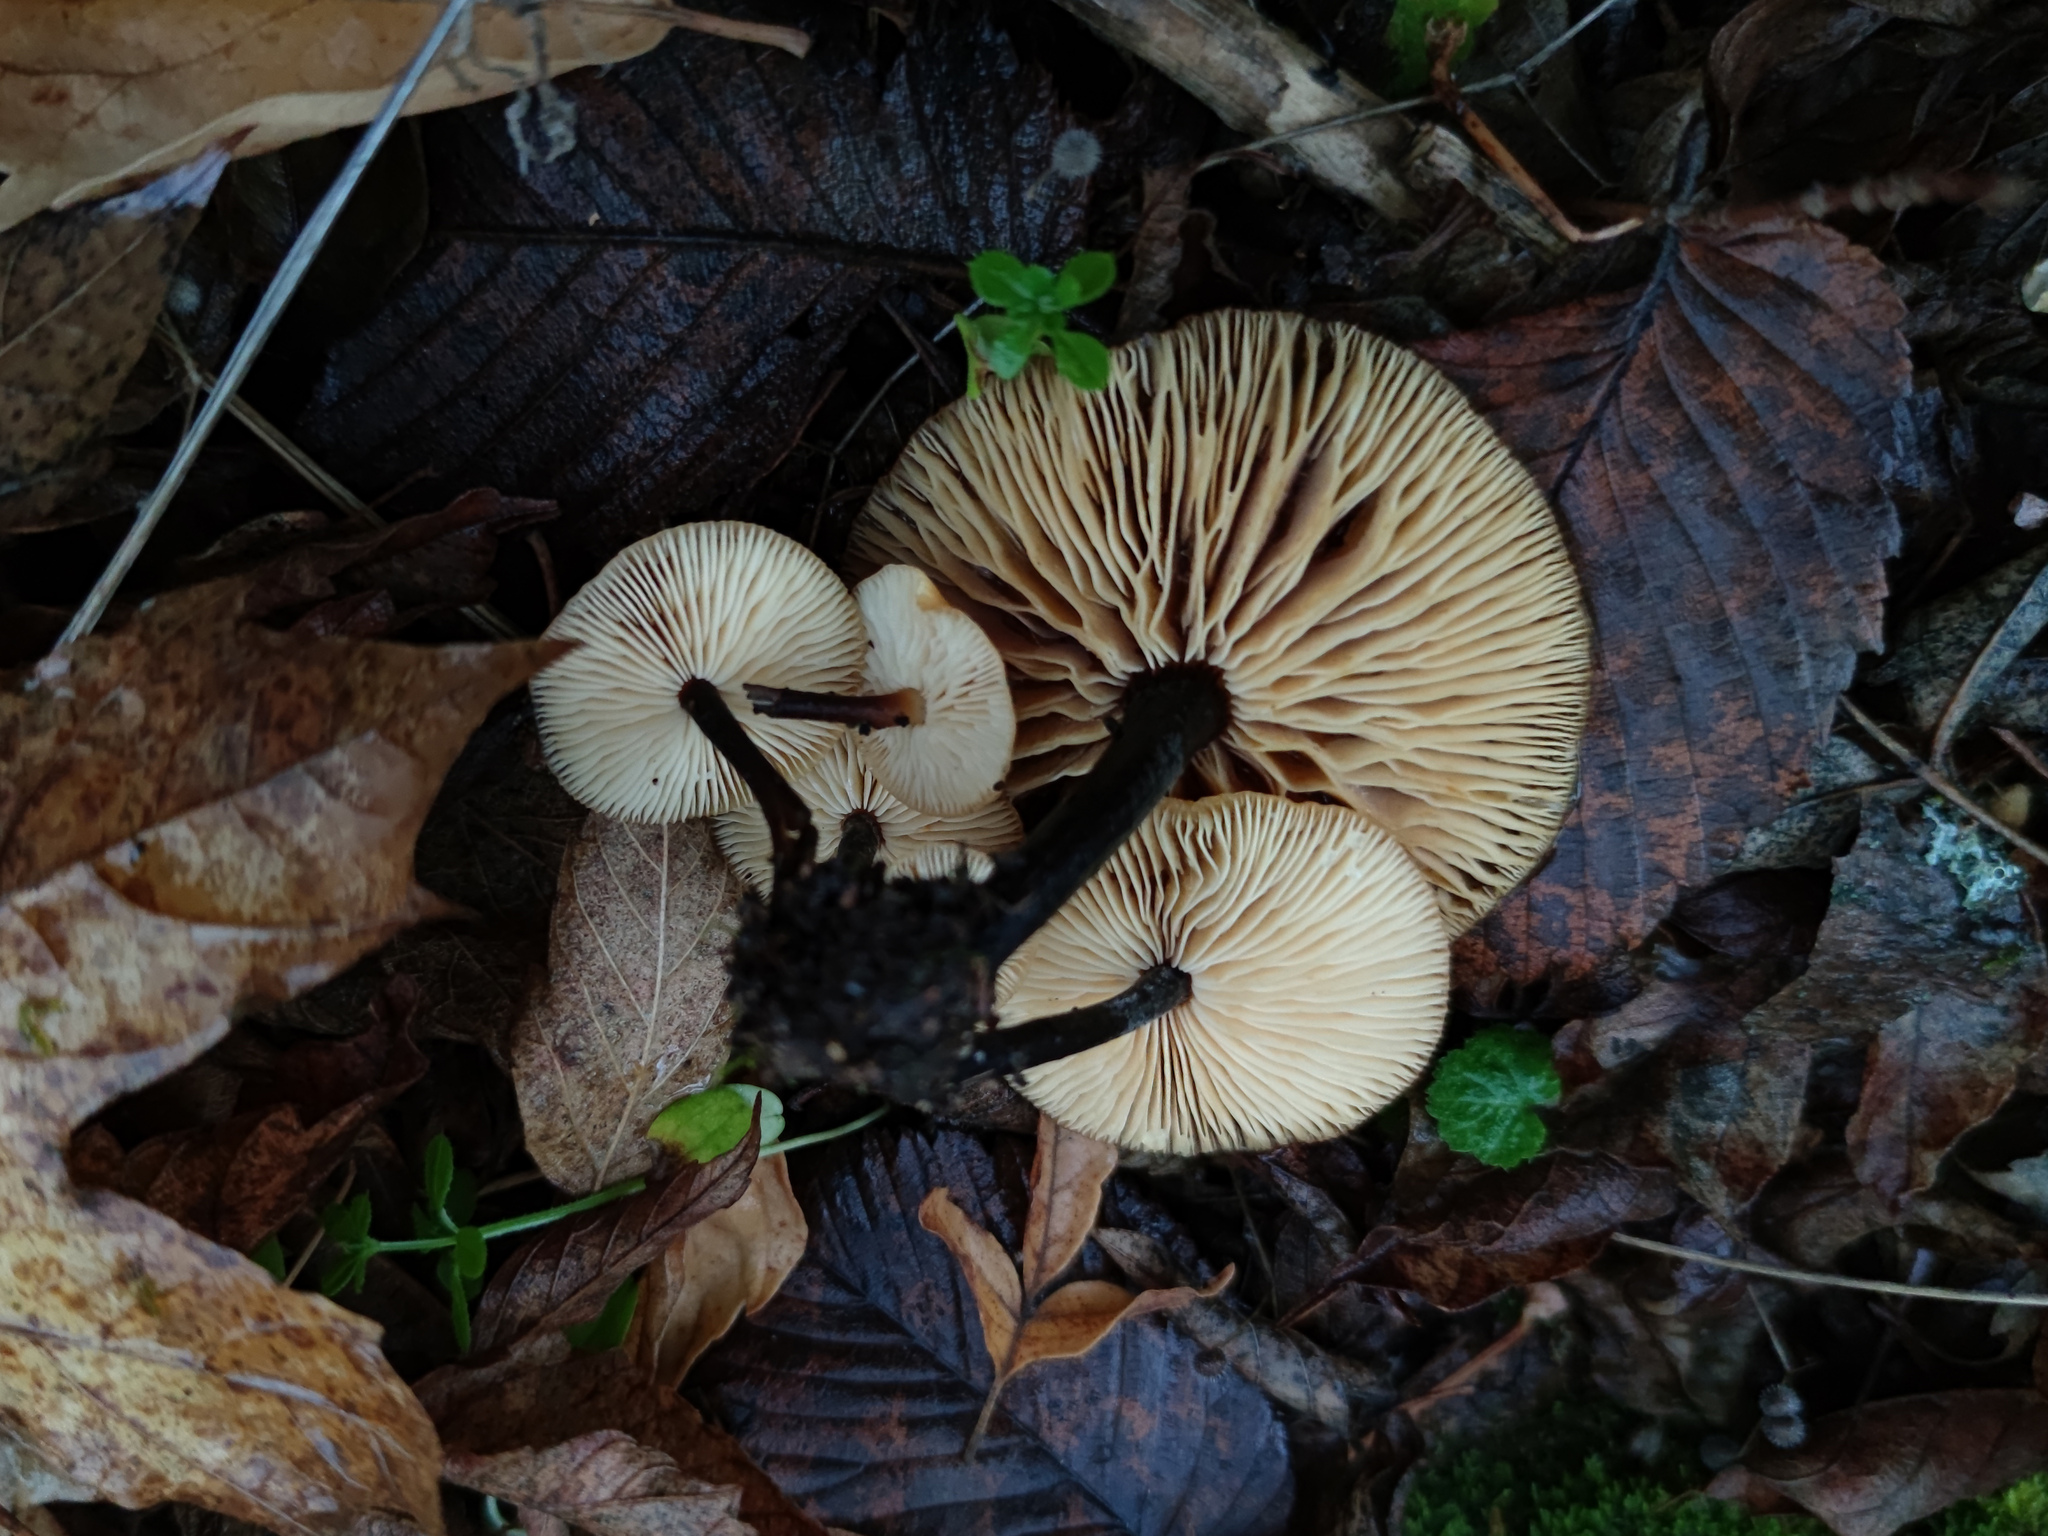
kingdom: Fungi
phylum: Basidiomycota
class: Agaricomycetes
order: Agaricales
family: Physalacriaceae
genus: Flammulina
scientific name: Flammulina
